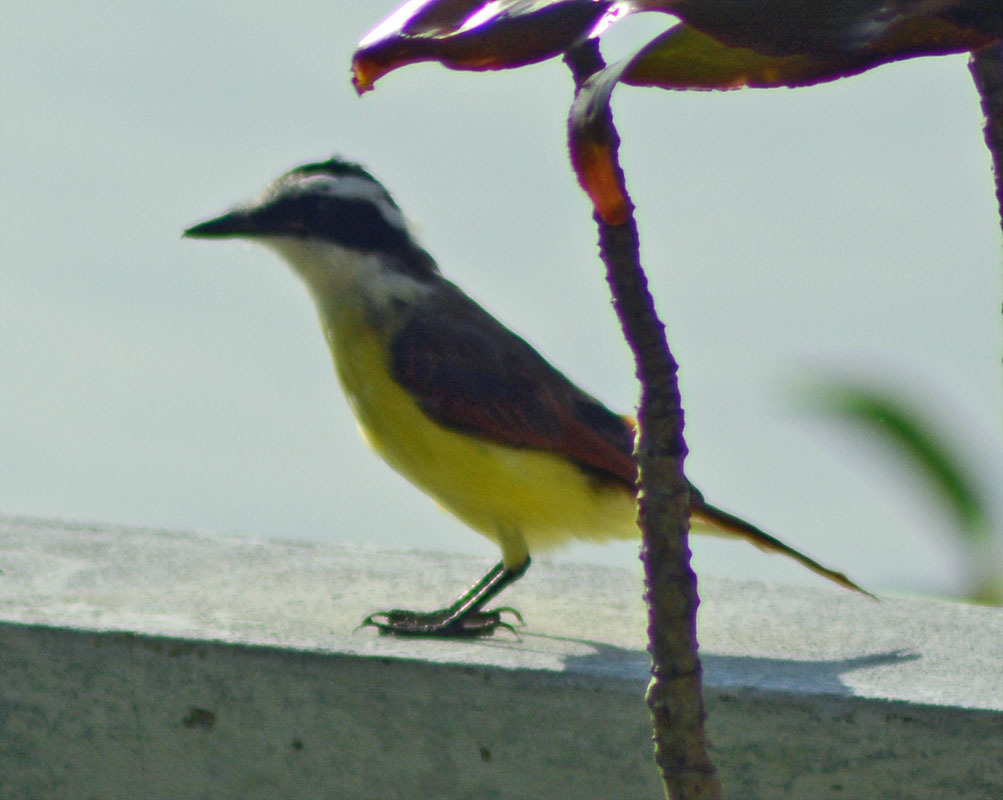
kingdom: Animalia
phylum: Chordata
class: Aves
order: Passeriformes
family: Tyrannidae
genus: Pitangus
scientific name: Pitangus sulphuratus
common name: Great kiskadee
